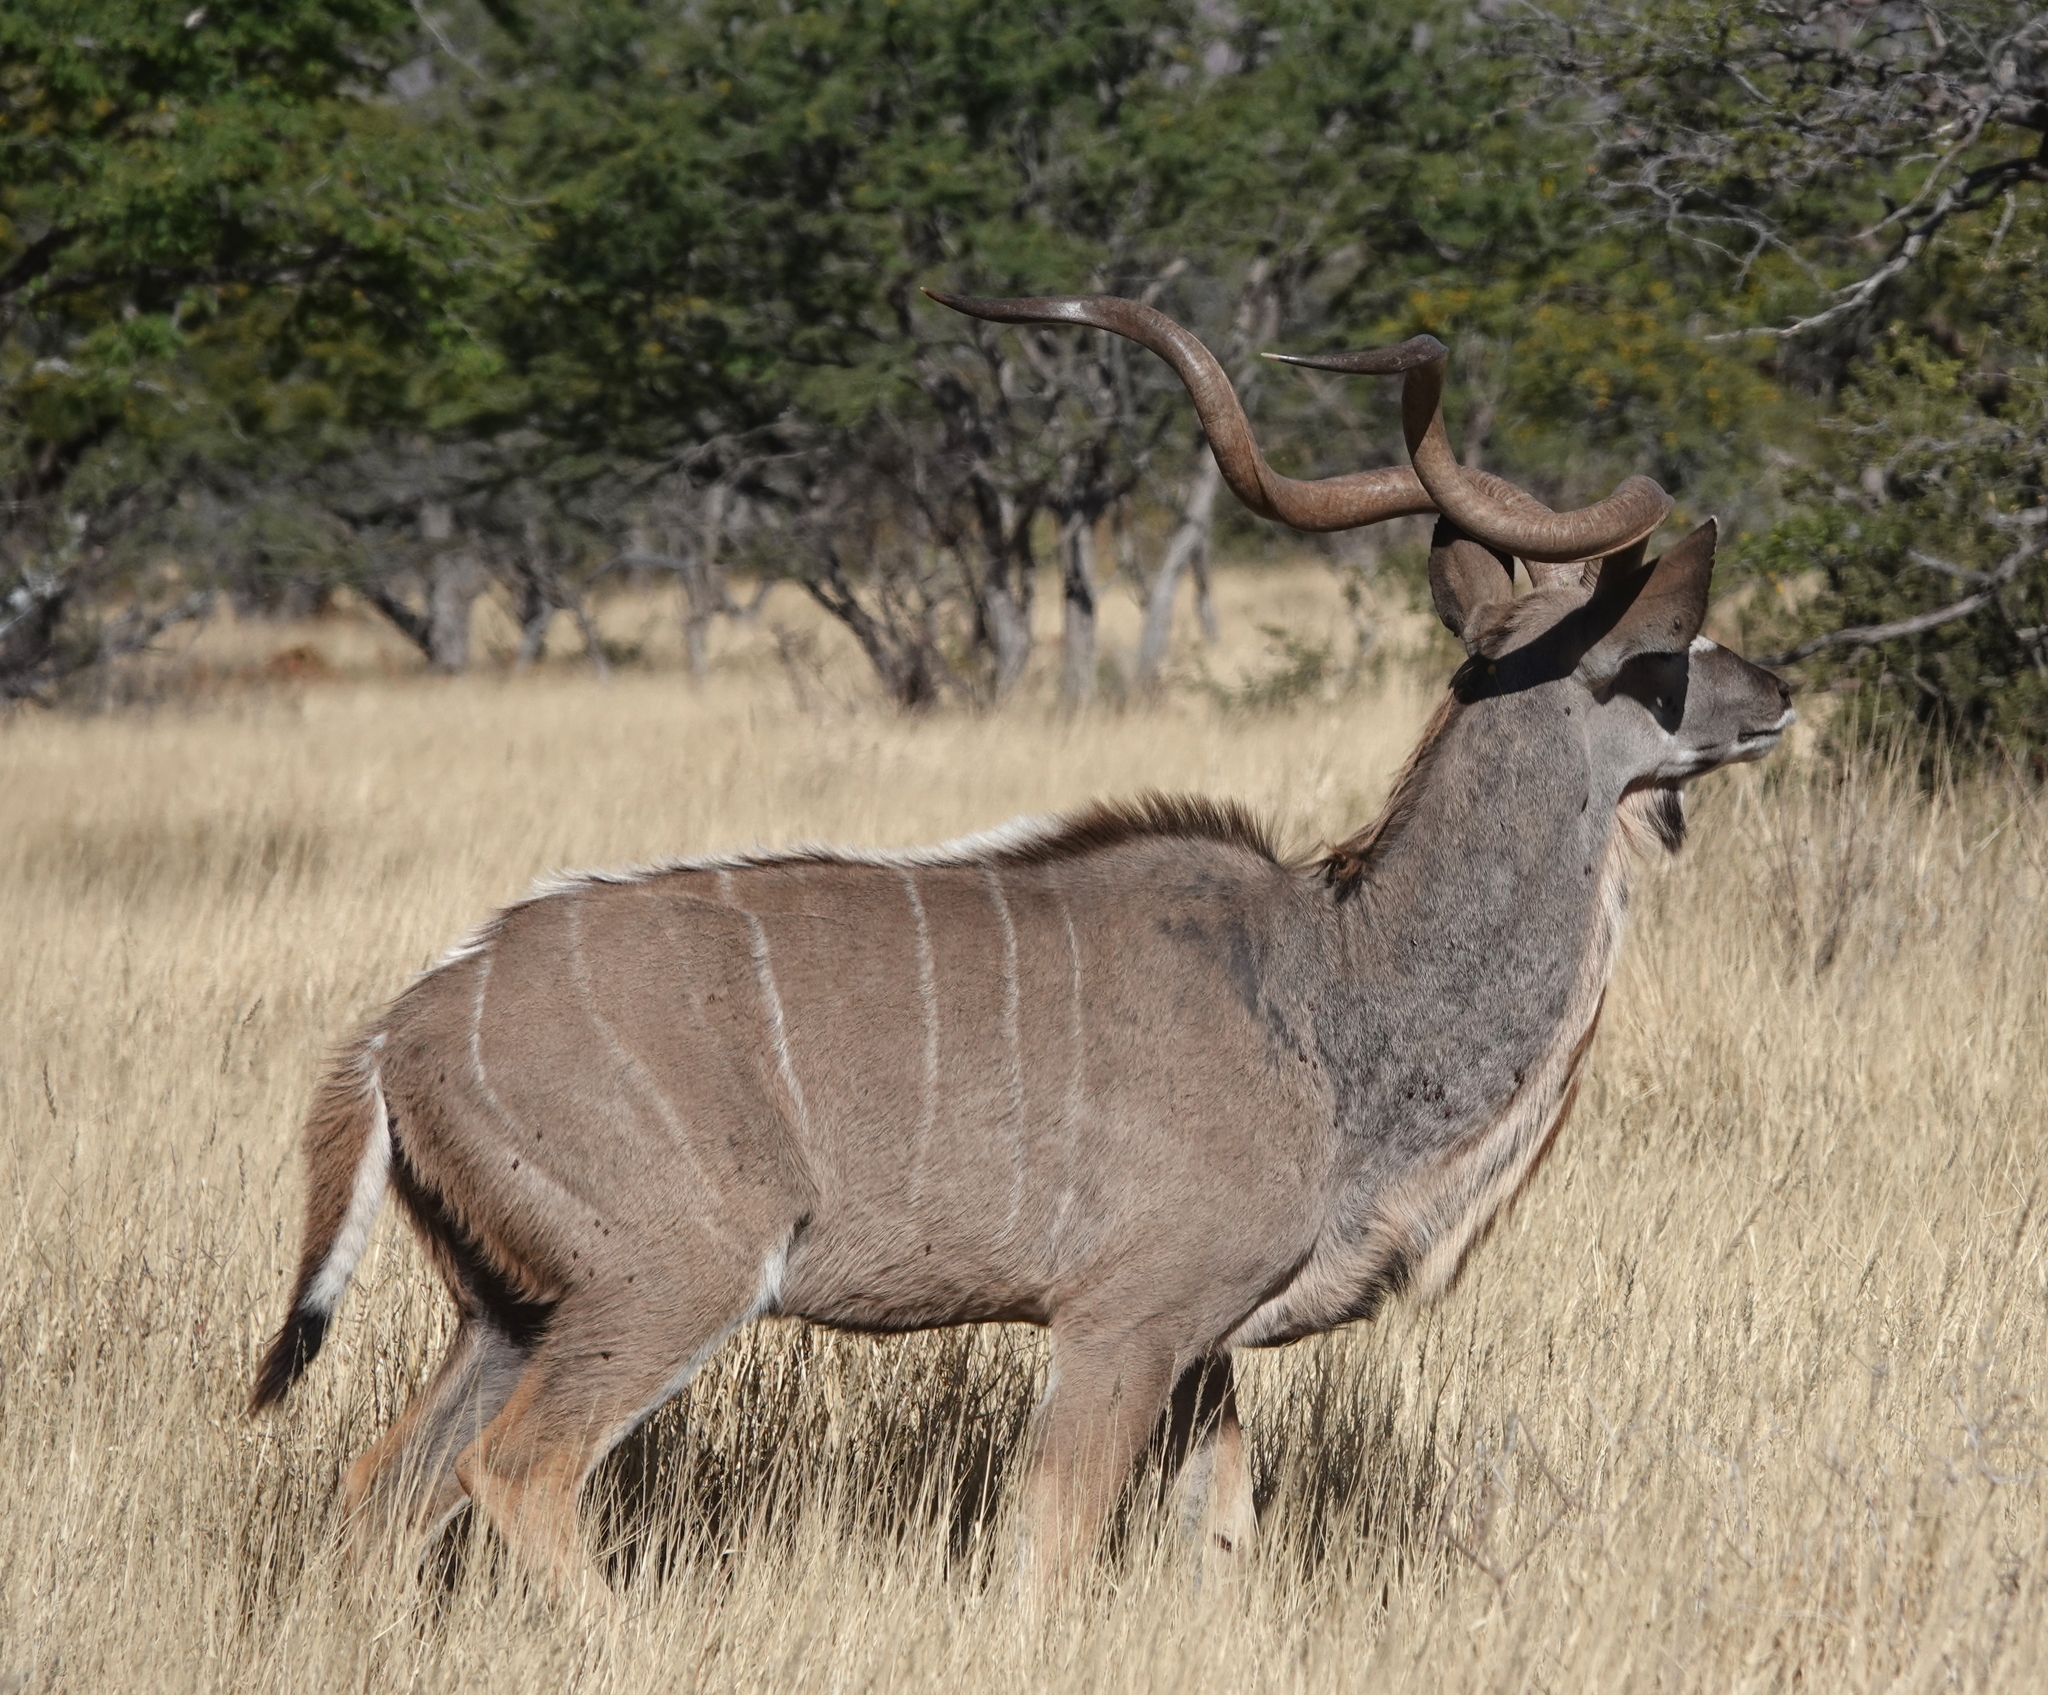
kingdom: Animalia
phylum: Chordata
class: Mammalia
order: Artiodactyla
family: Bovidae
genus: Tragelaphus
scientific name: Tragelaphus strepsiceros
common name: Greater kudu
